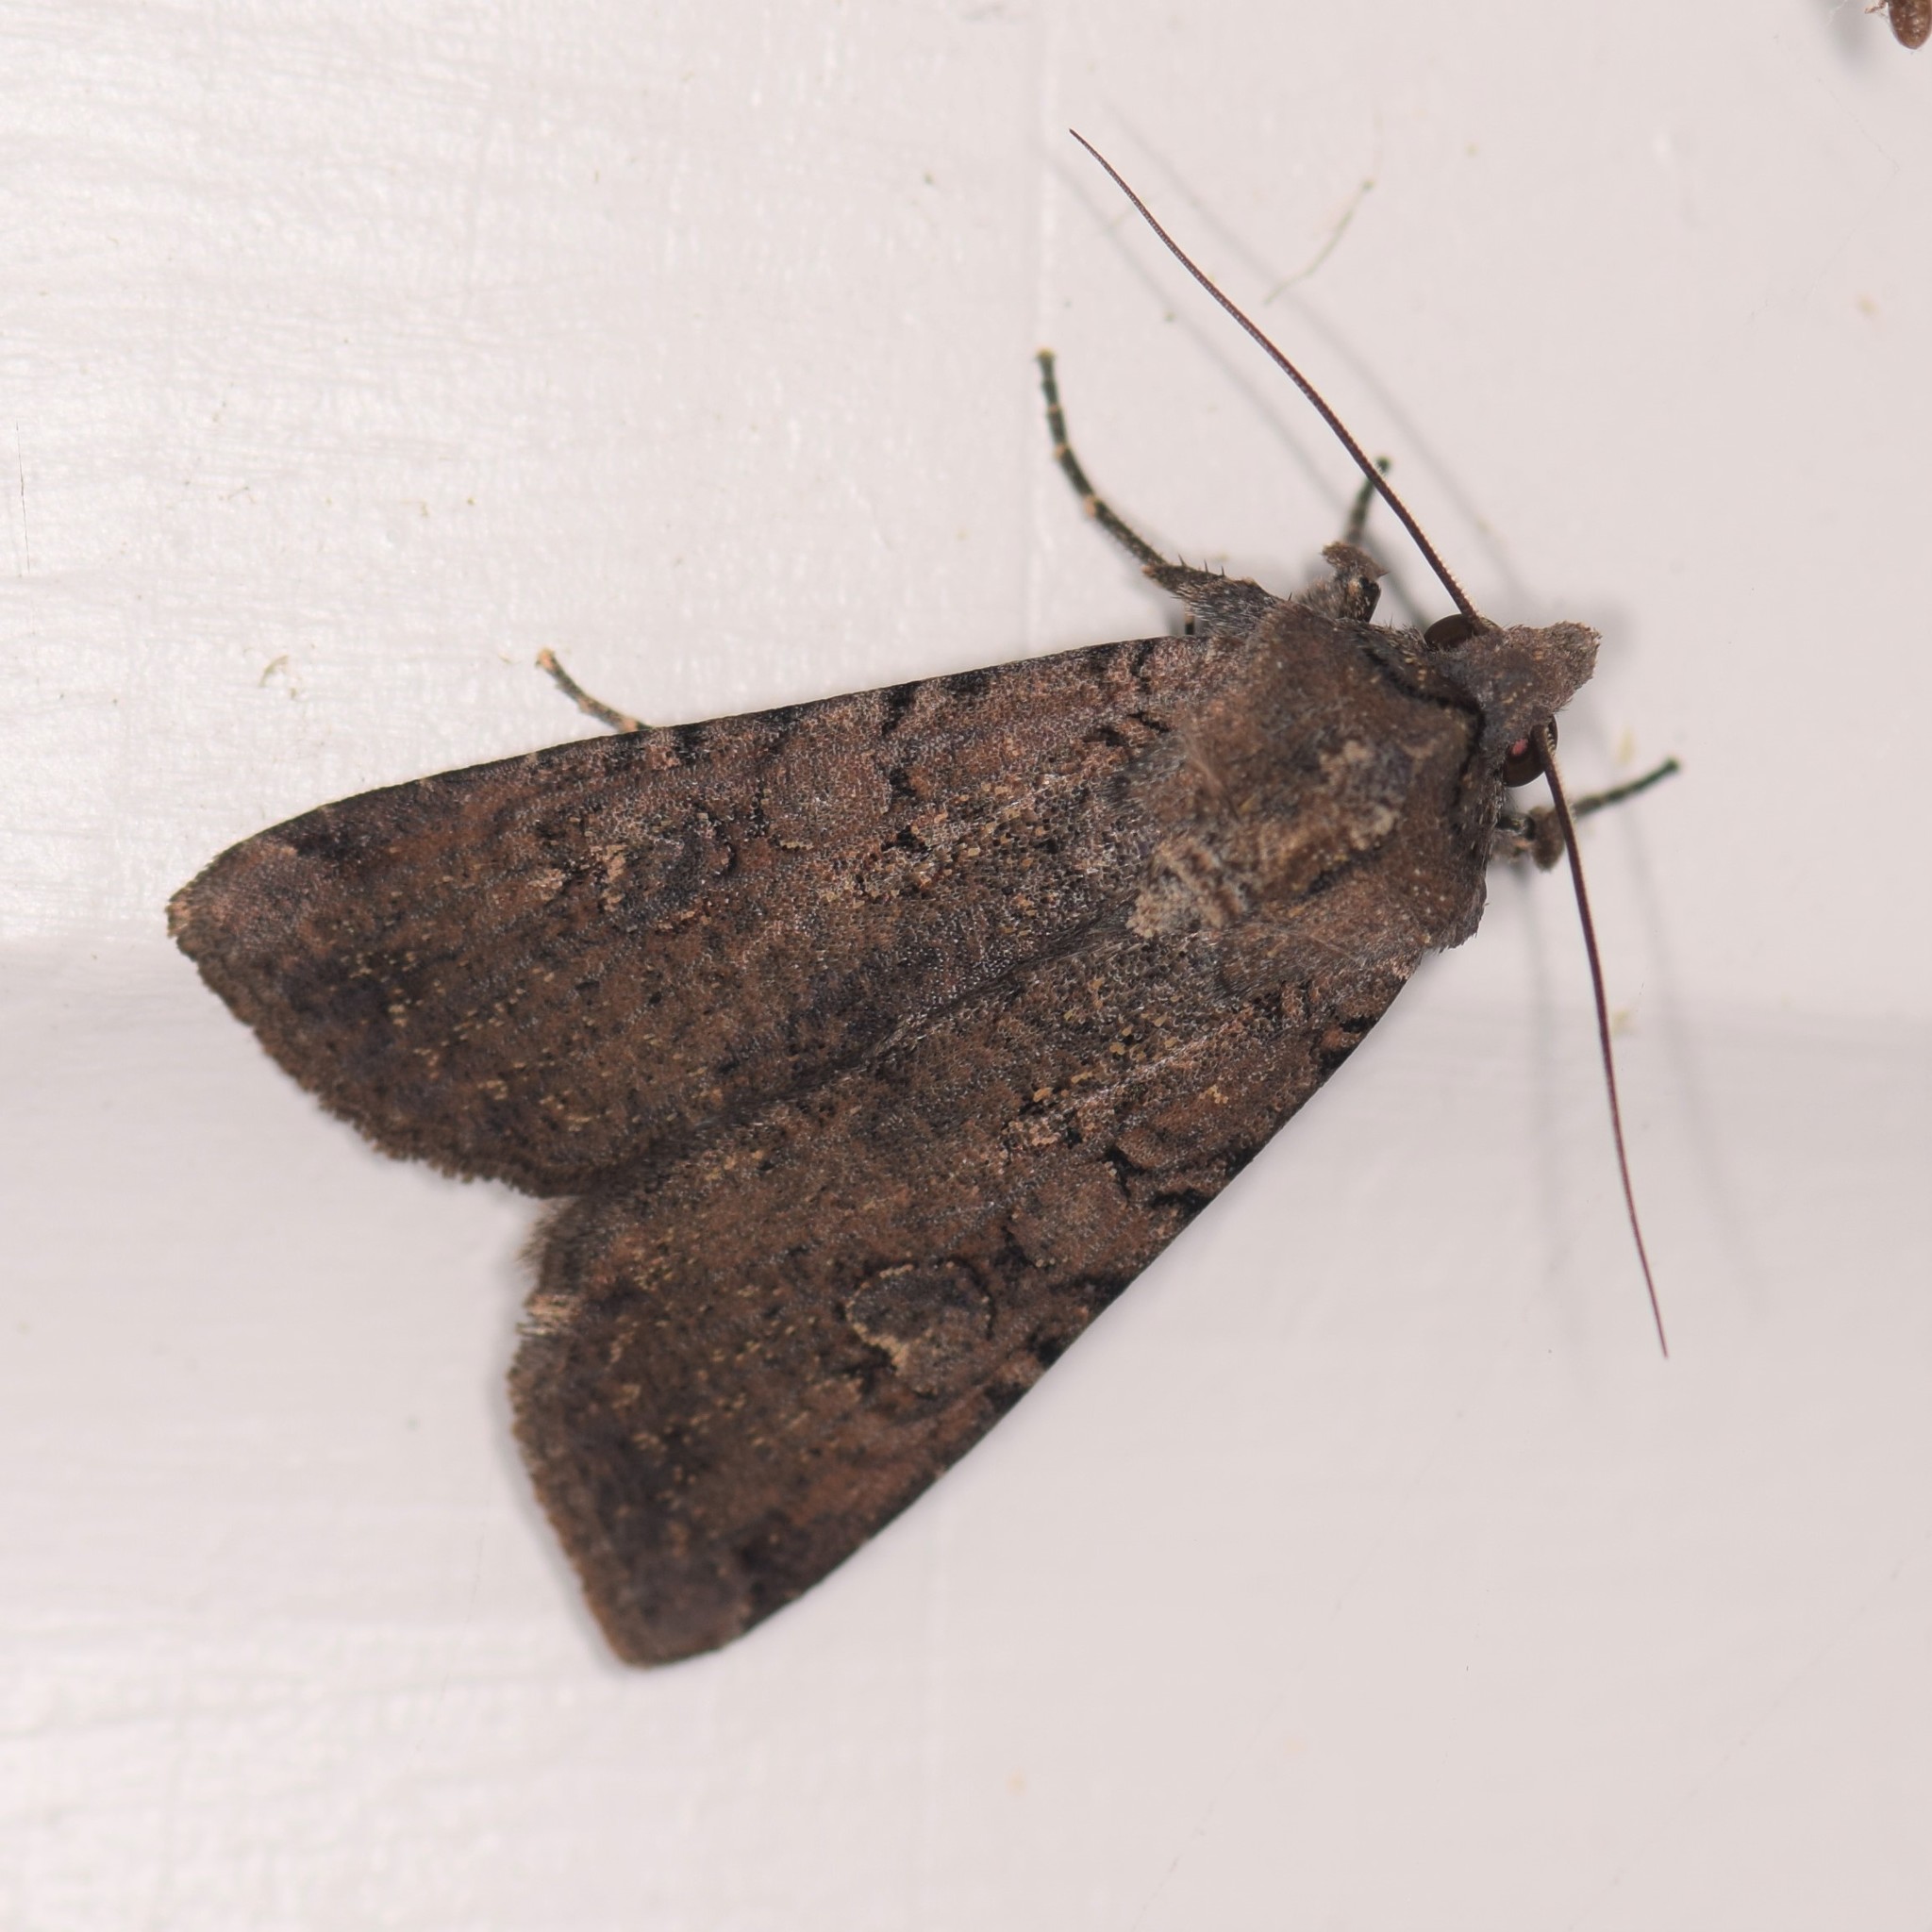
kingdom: Animalia
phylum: Arthropoda
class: Insecta
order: Lepidoptera
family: Noctuidae
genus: Peridroma
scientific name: Peridroma saucia
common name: Pearly underwing
